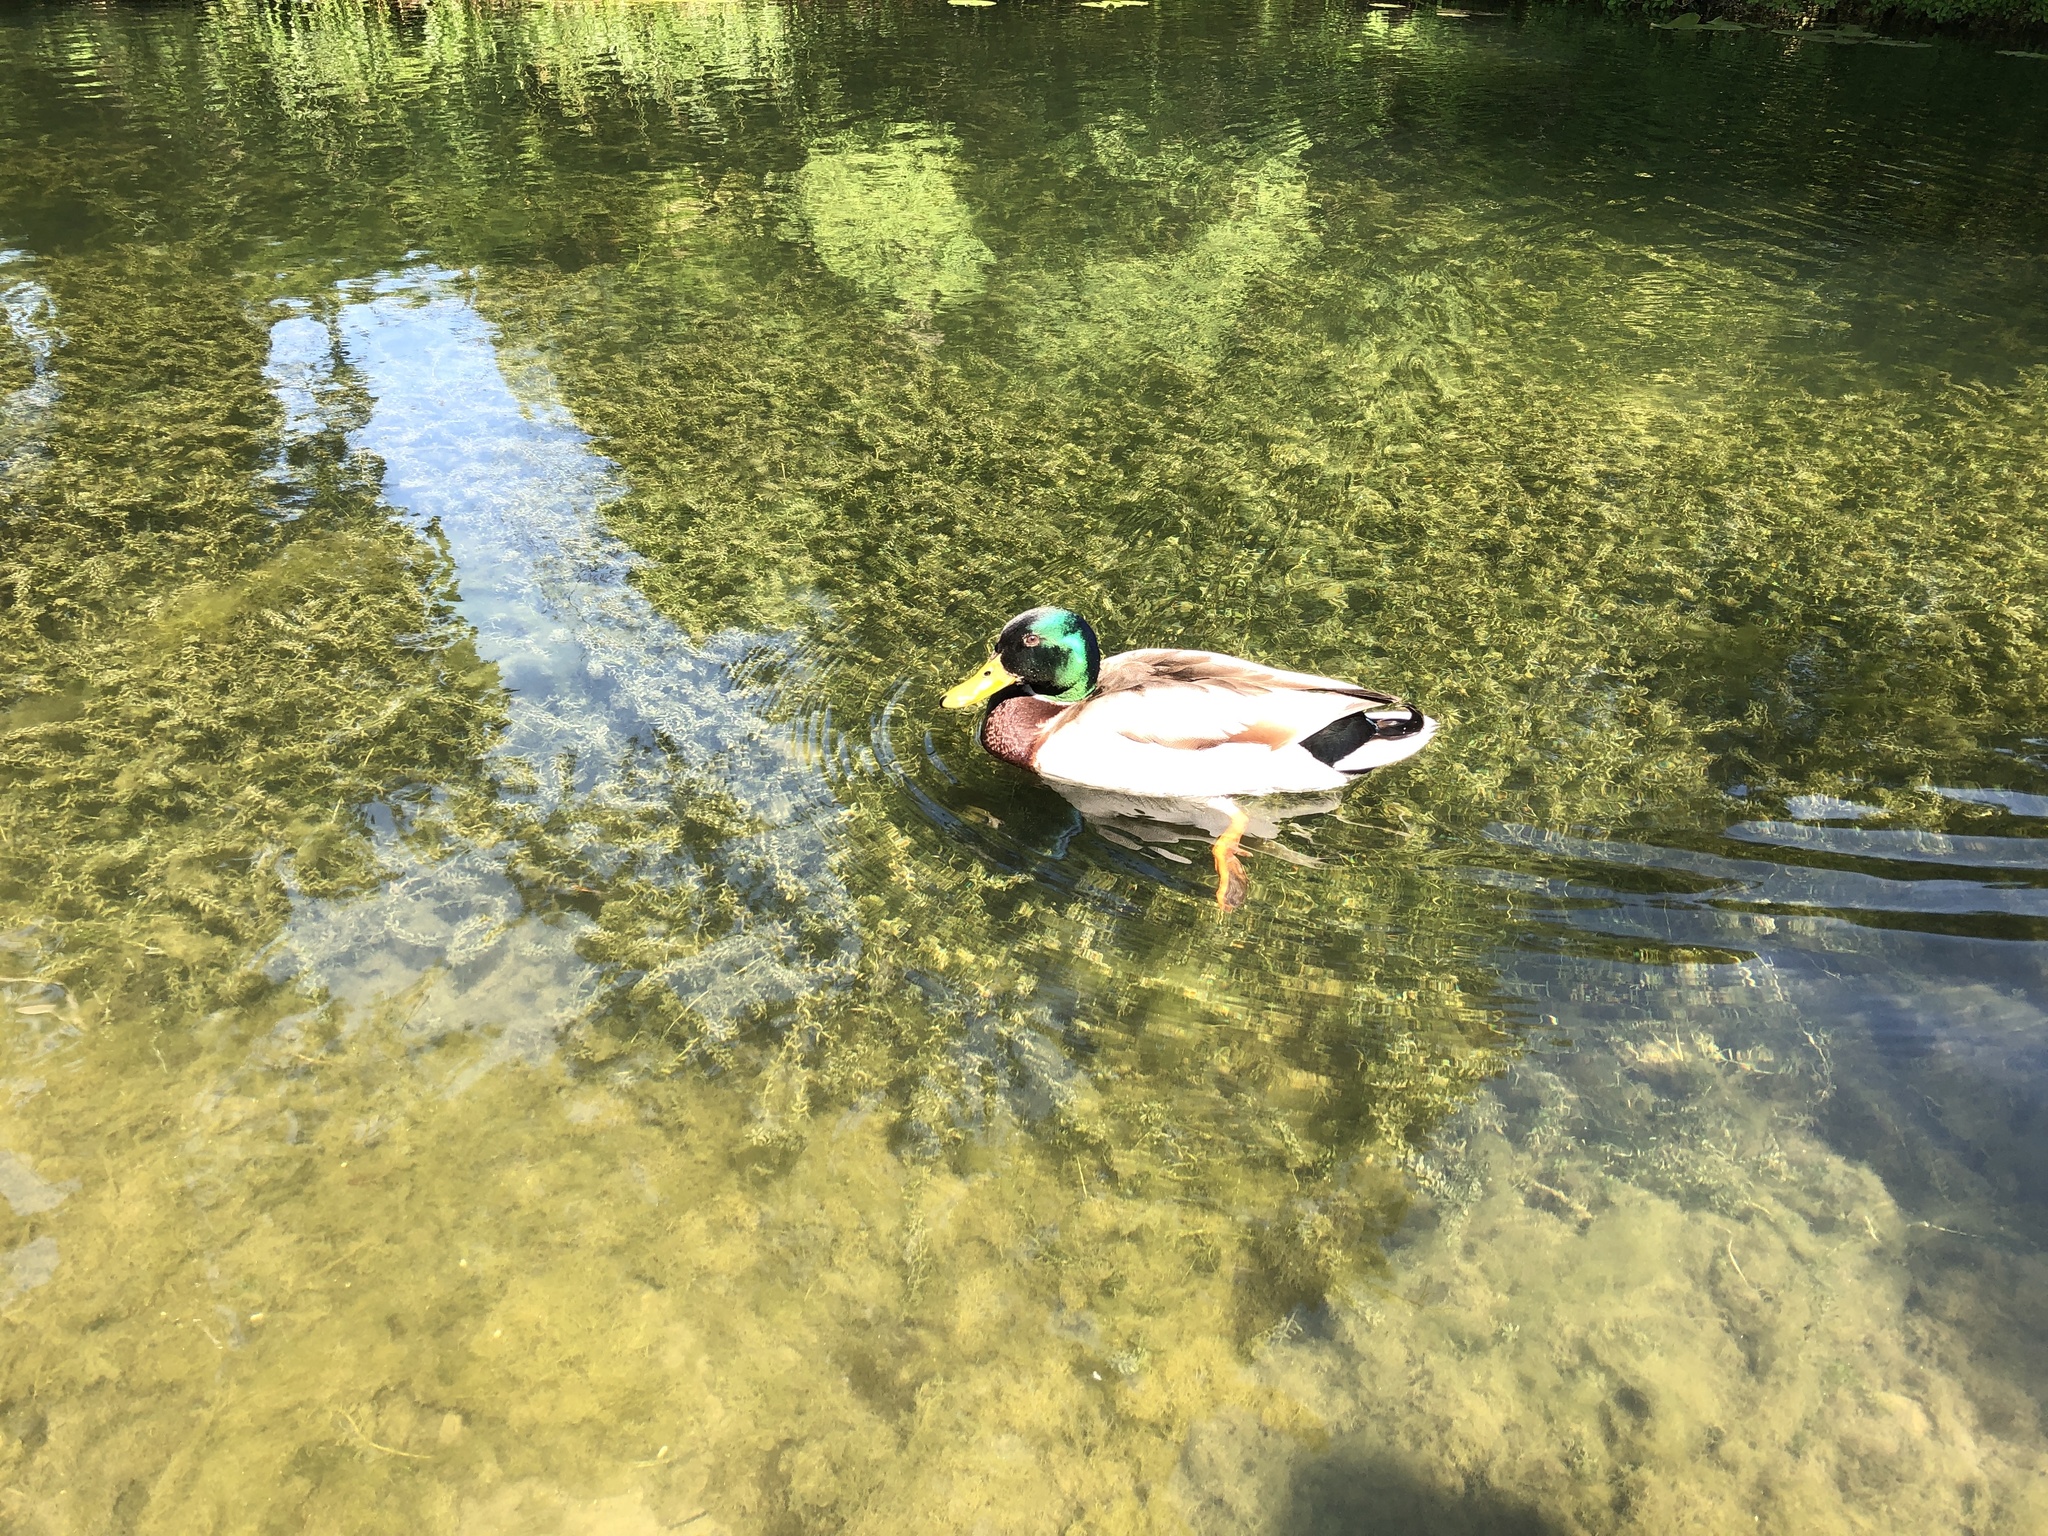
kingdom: Animalia
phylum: Chordata
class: Aves
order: Anseriformes
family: Anatidae
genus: Anas
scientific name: Anas platyrhynchos
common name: Mallard
